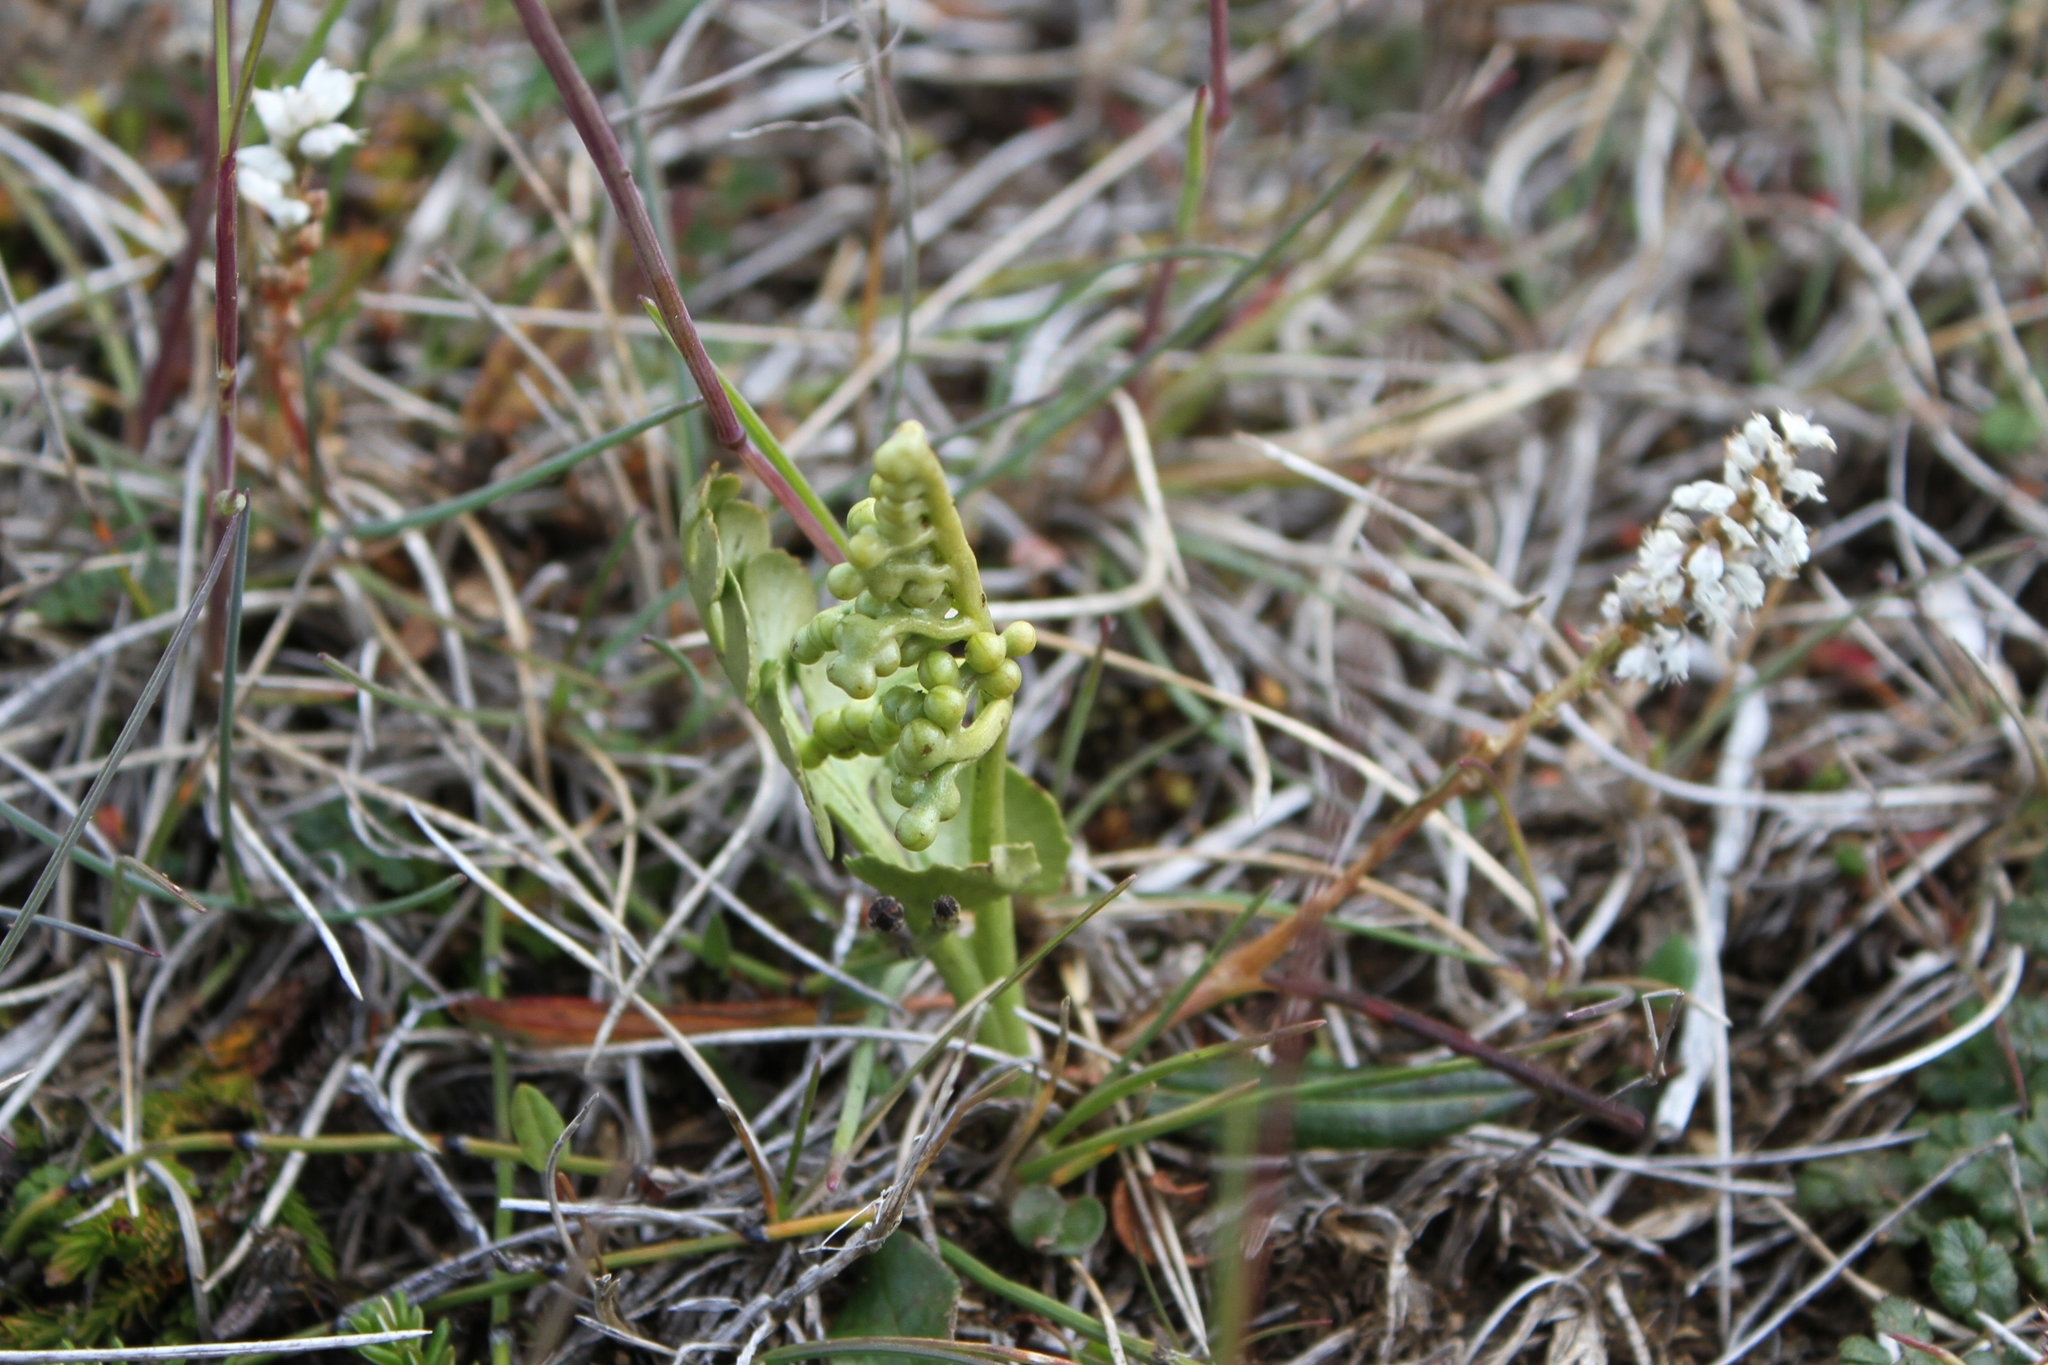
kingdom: Plantae
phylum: Tracheophyta
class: Polypodiopsida
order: Ophioglossales
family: Ophioglossaceae
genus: Botrychium
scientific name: Botrychium lunaria
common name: Moonwort
